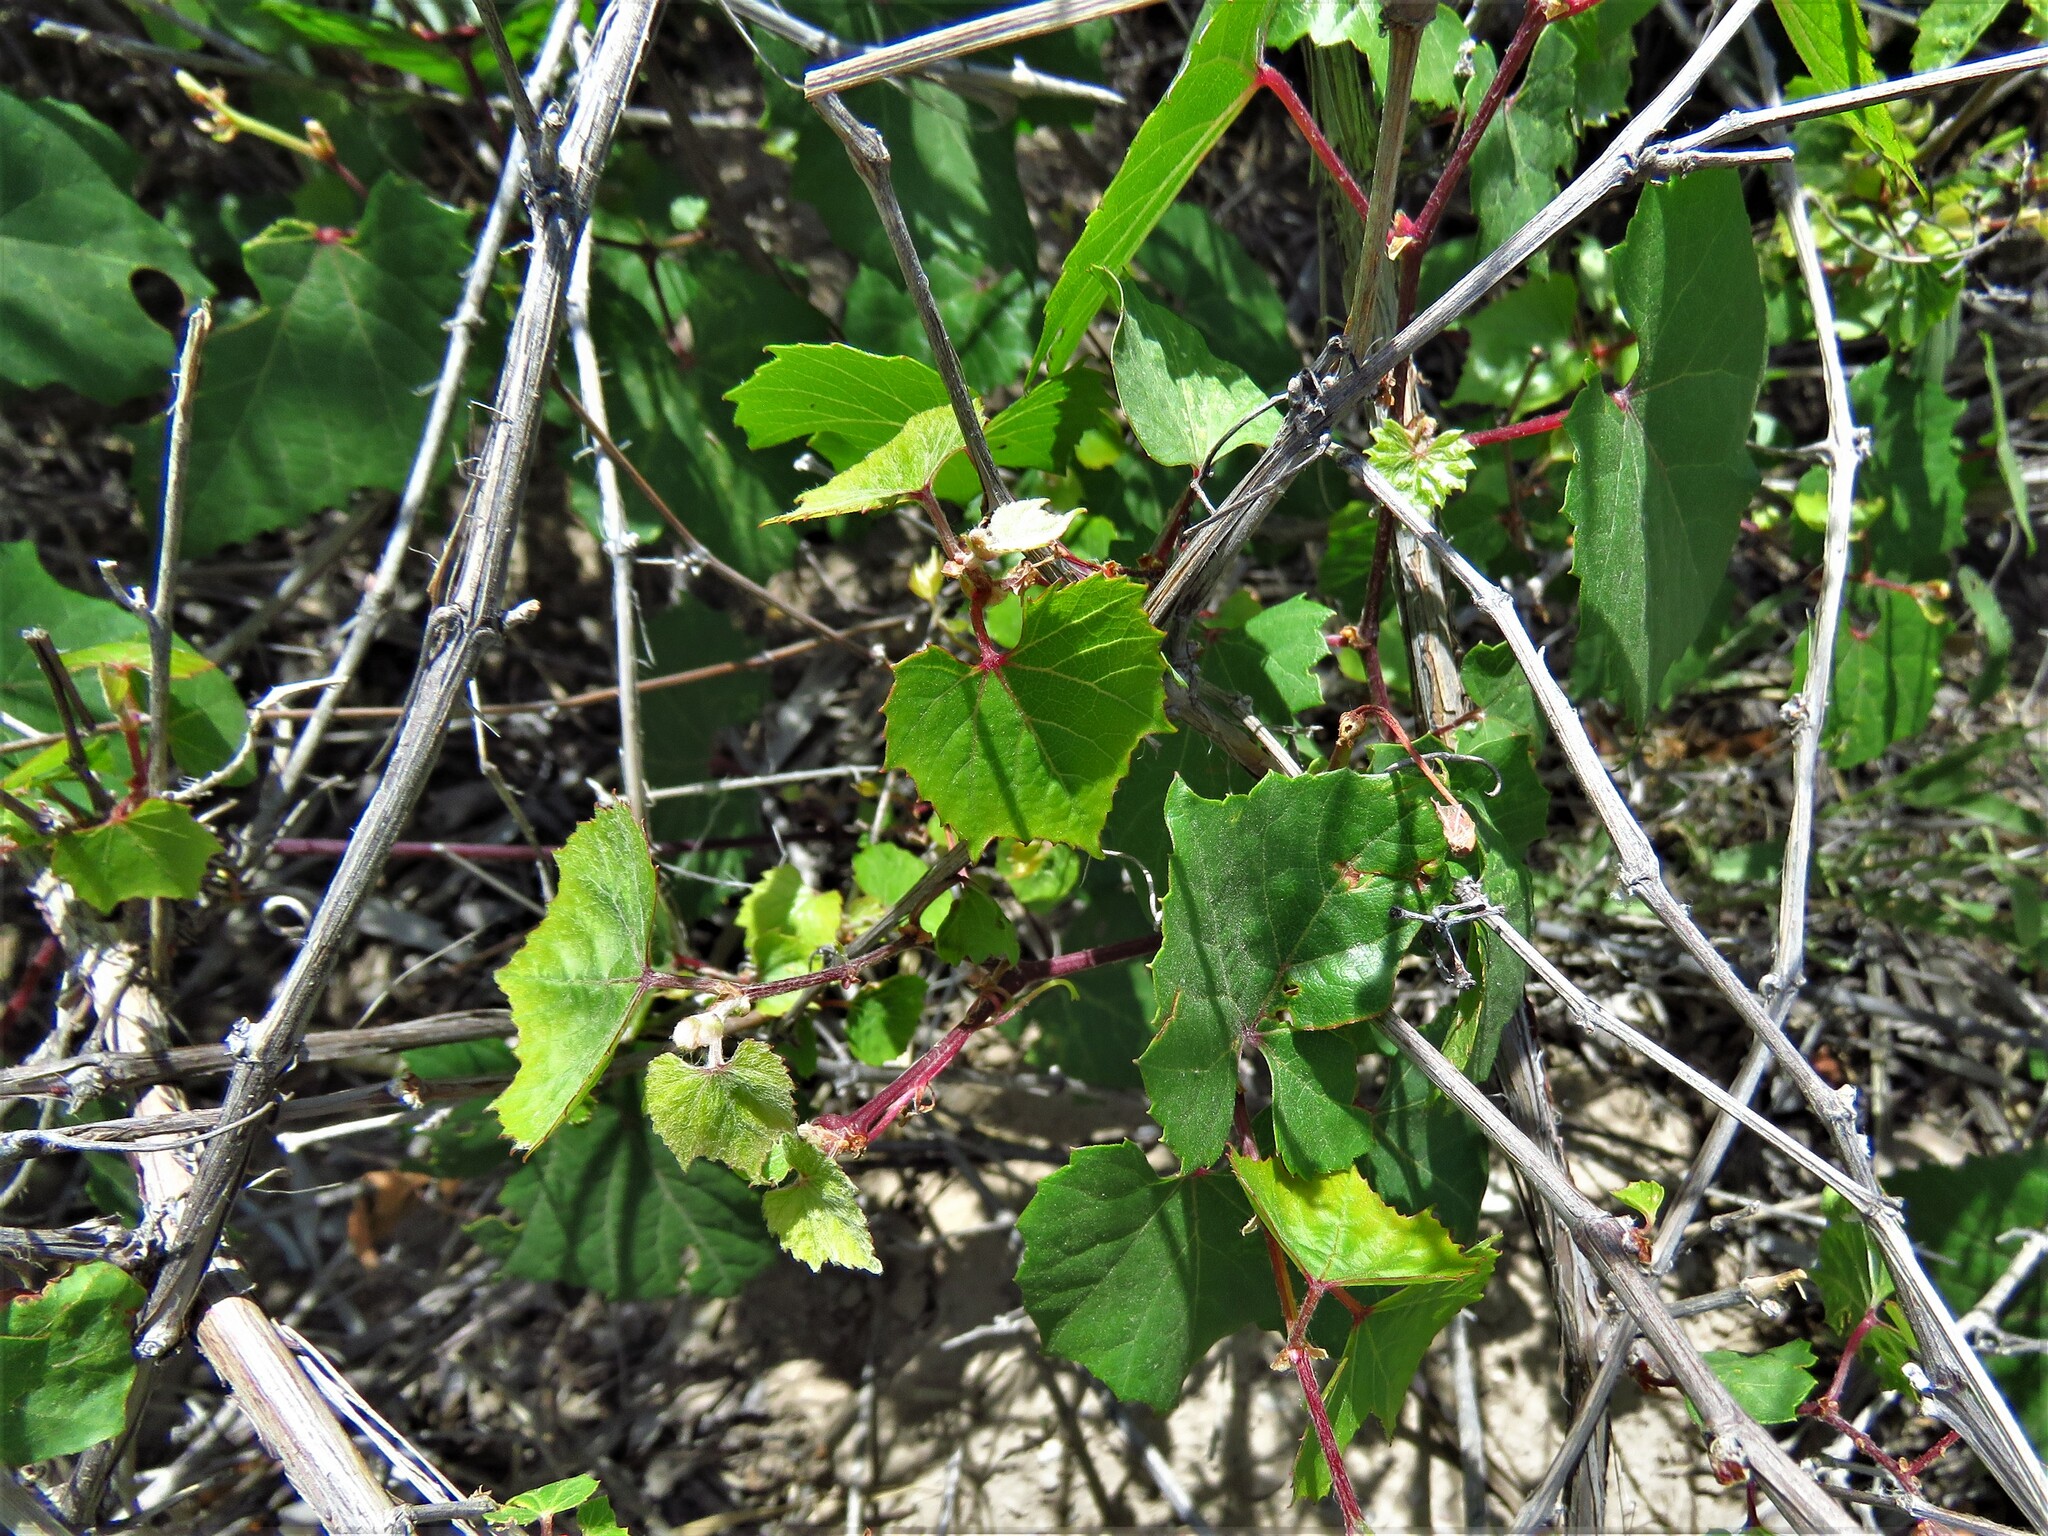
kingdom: Plantae
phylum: Tracheophyta
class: Magnoliopsida
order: Vitales
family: Vitaceae
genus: Vitis
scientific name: Vitis arizonica
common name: Canyon grape
